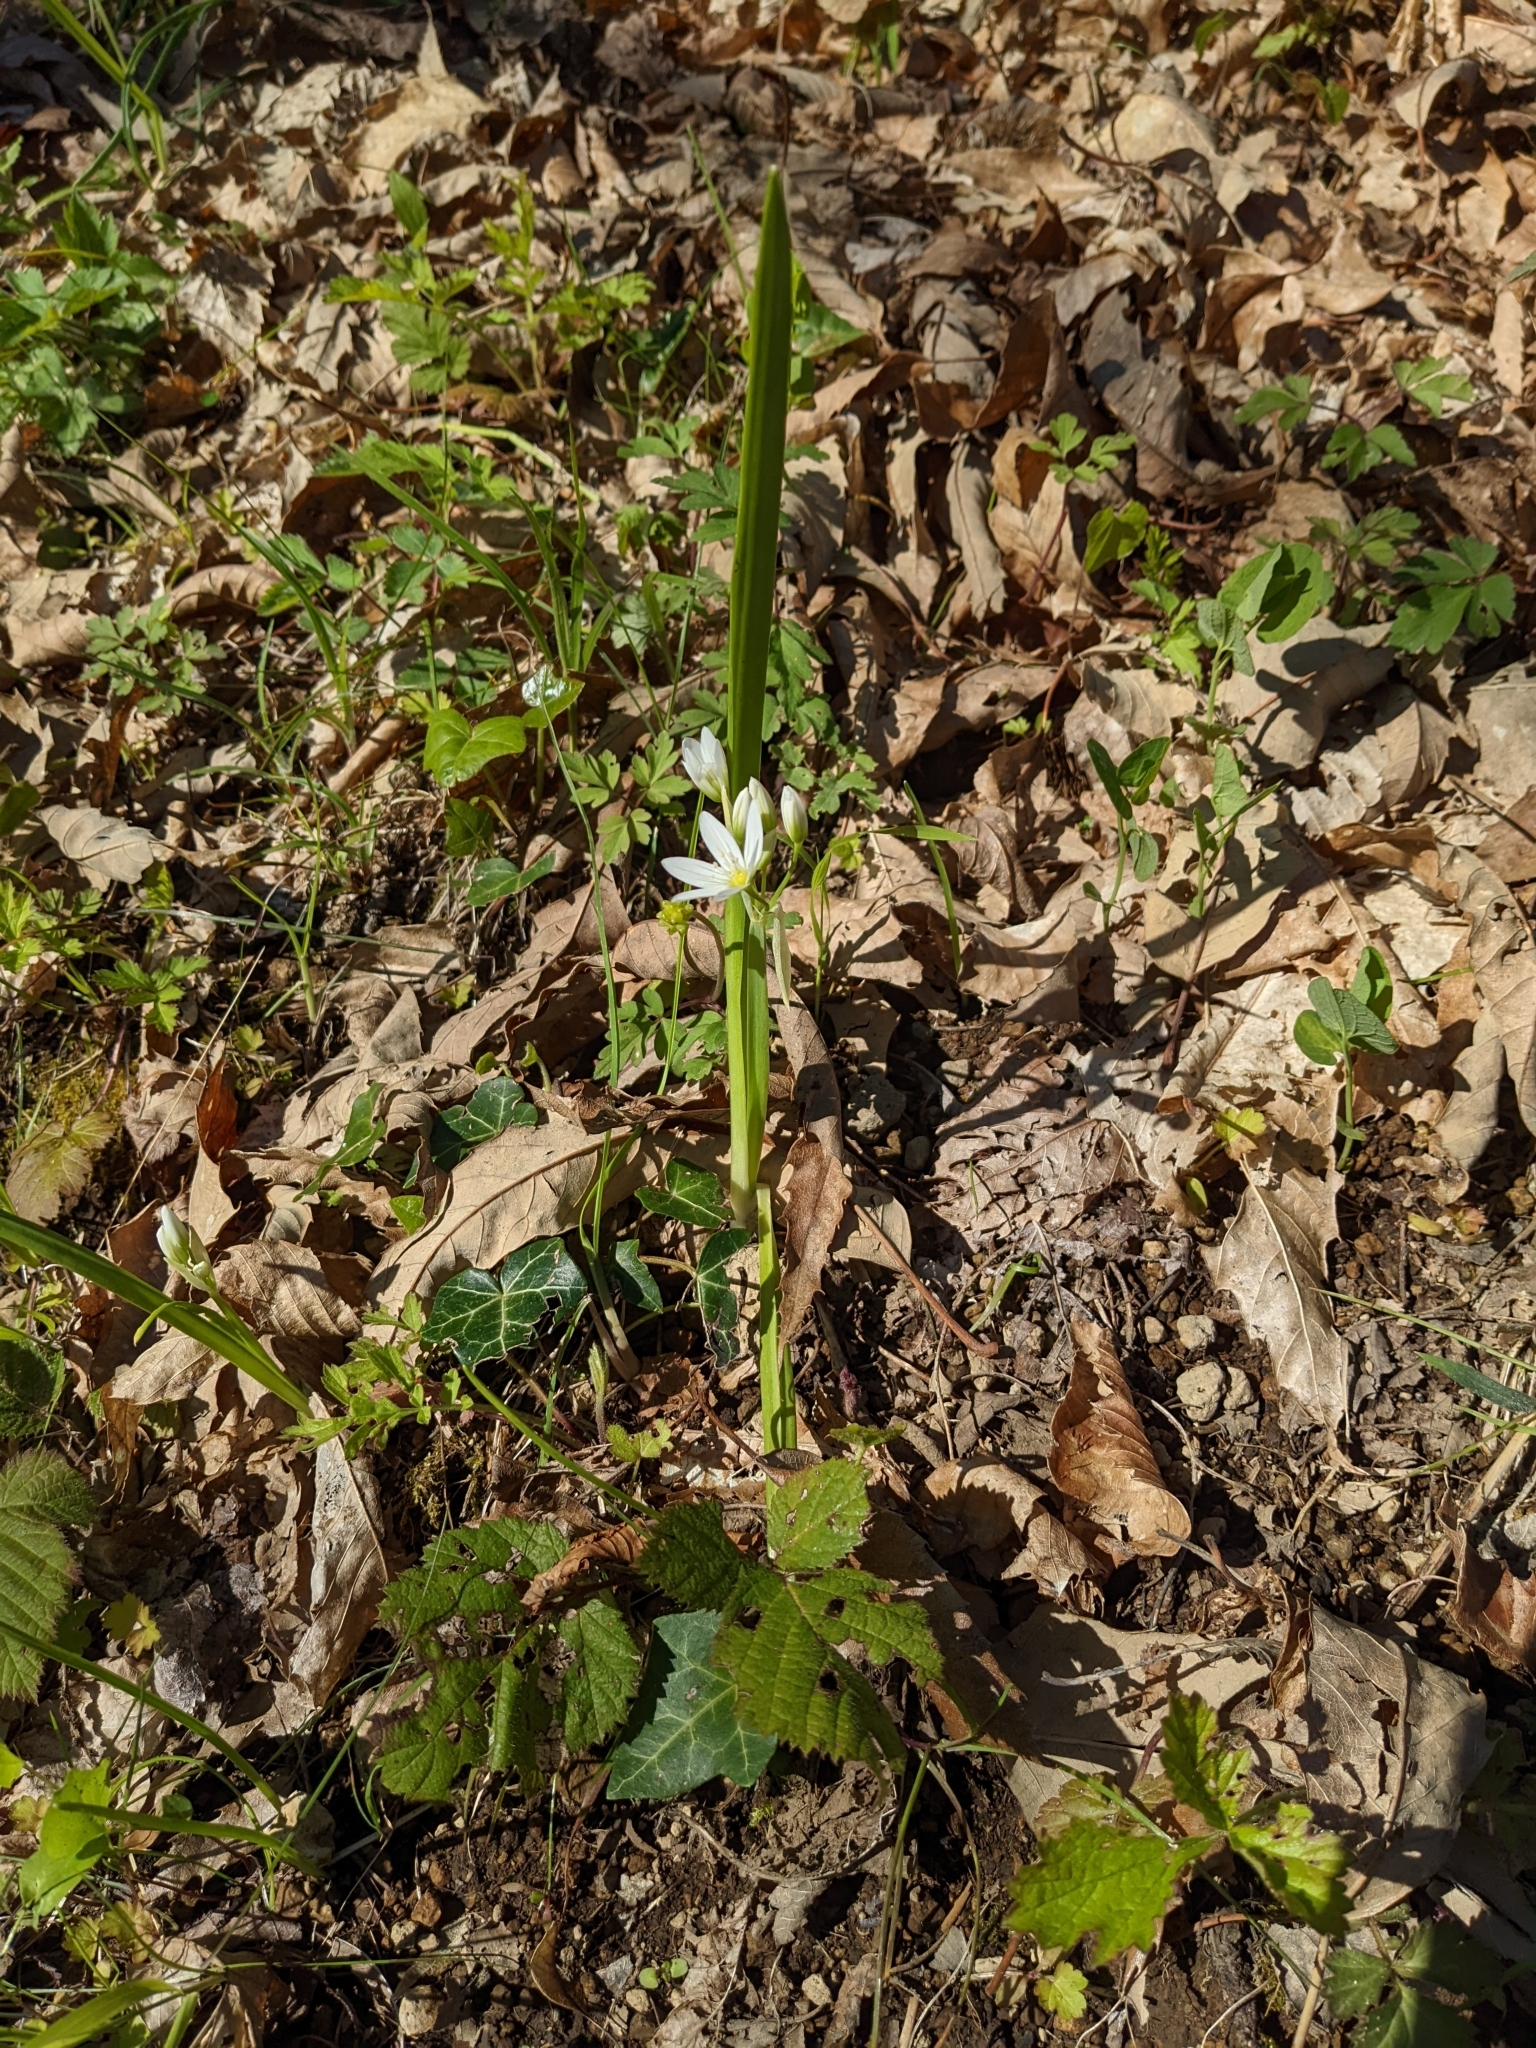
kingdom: Plantae
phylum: Tracheophyta
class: Liliopsida
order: Asparagales
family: Amaryllidaceae
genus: Allium
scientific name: Allium pendulinum
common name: Italian garlic
